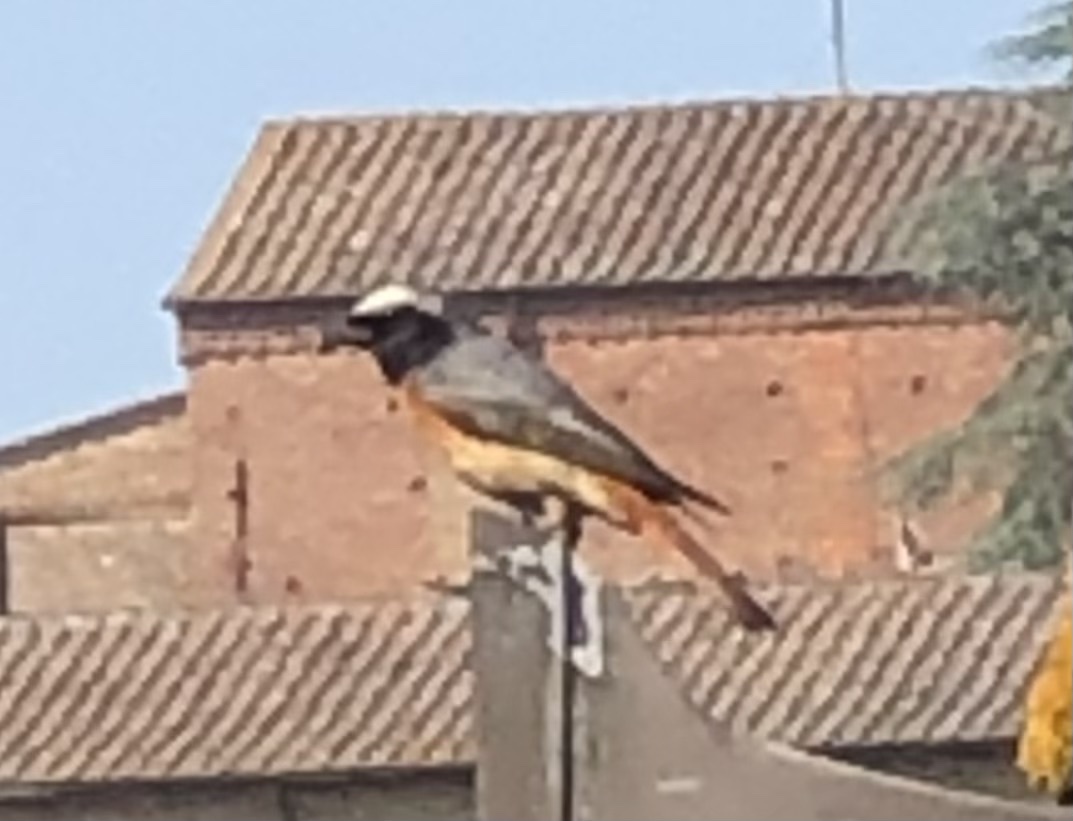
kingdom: Animalia
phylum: Chordata
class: Aves
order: Passeriformes
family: Muscicapidae
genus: Phoenicurus
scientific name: Phoenicurus phoenicurus
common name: Common redstart
